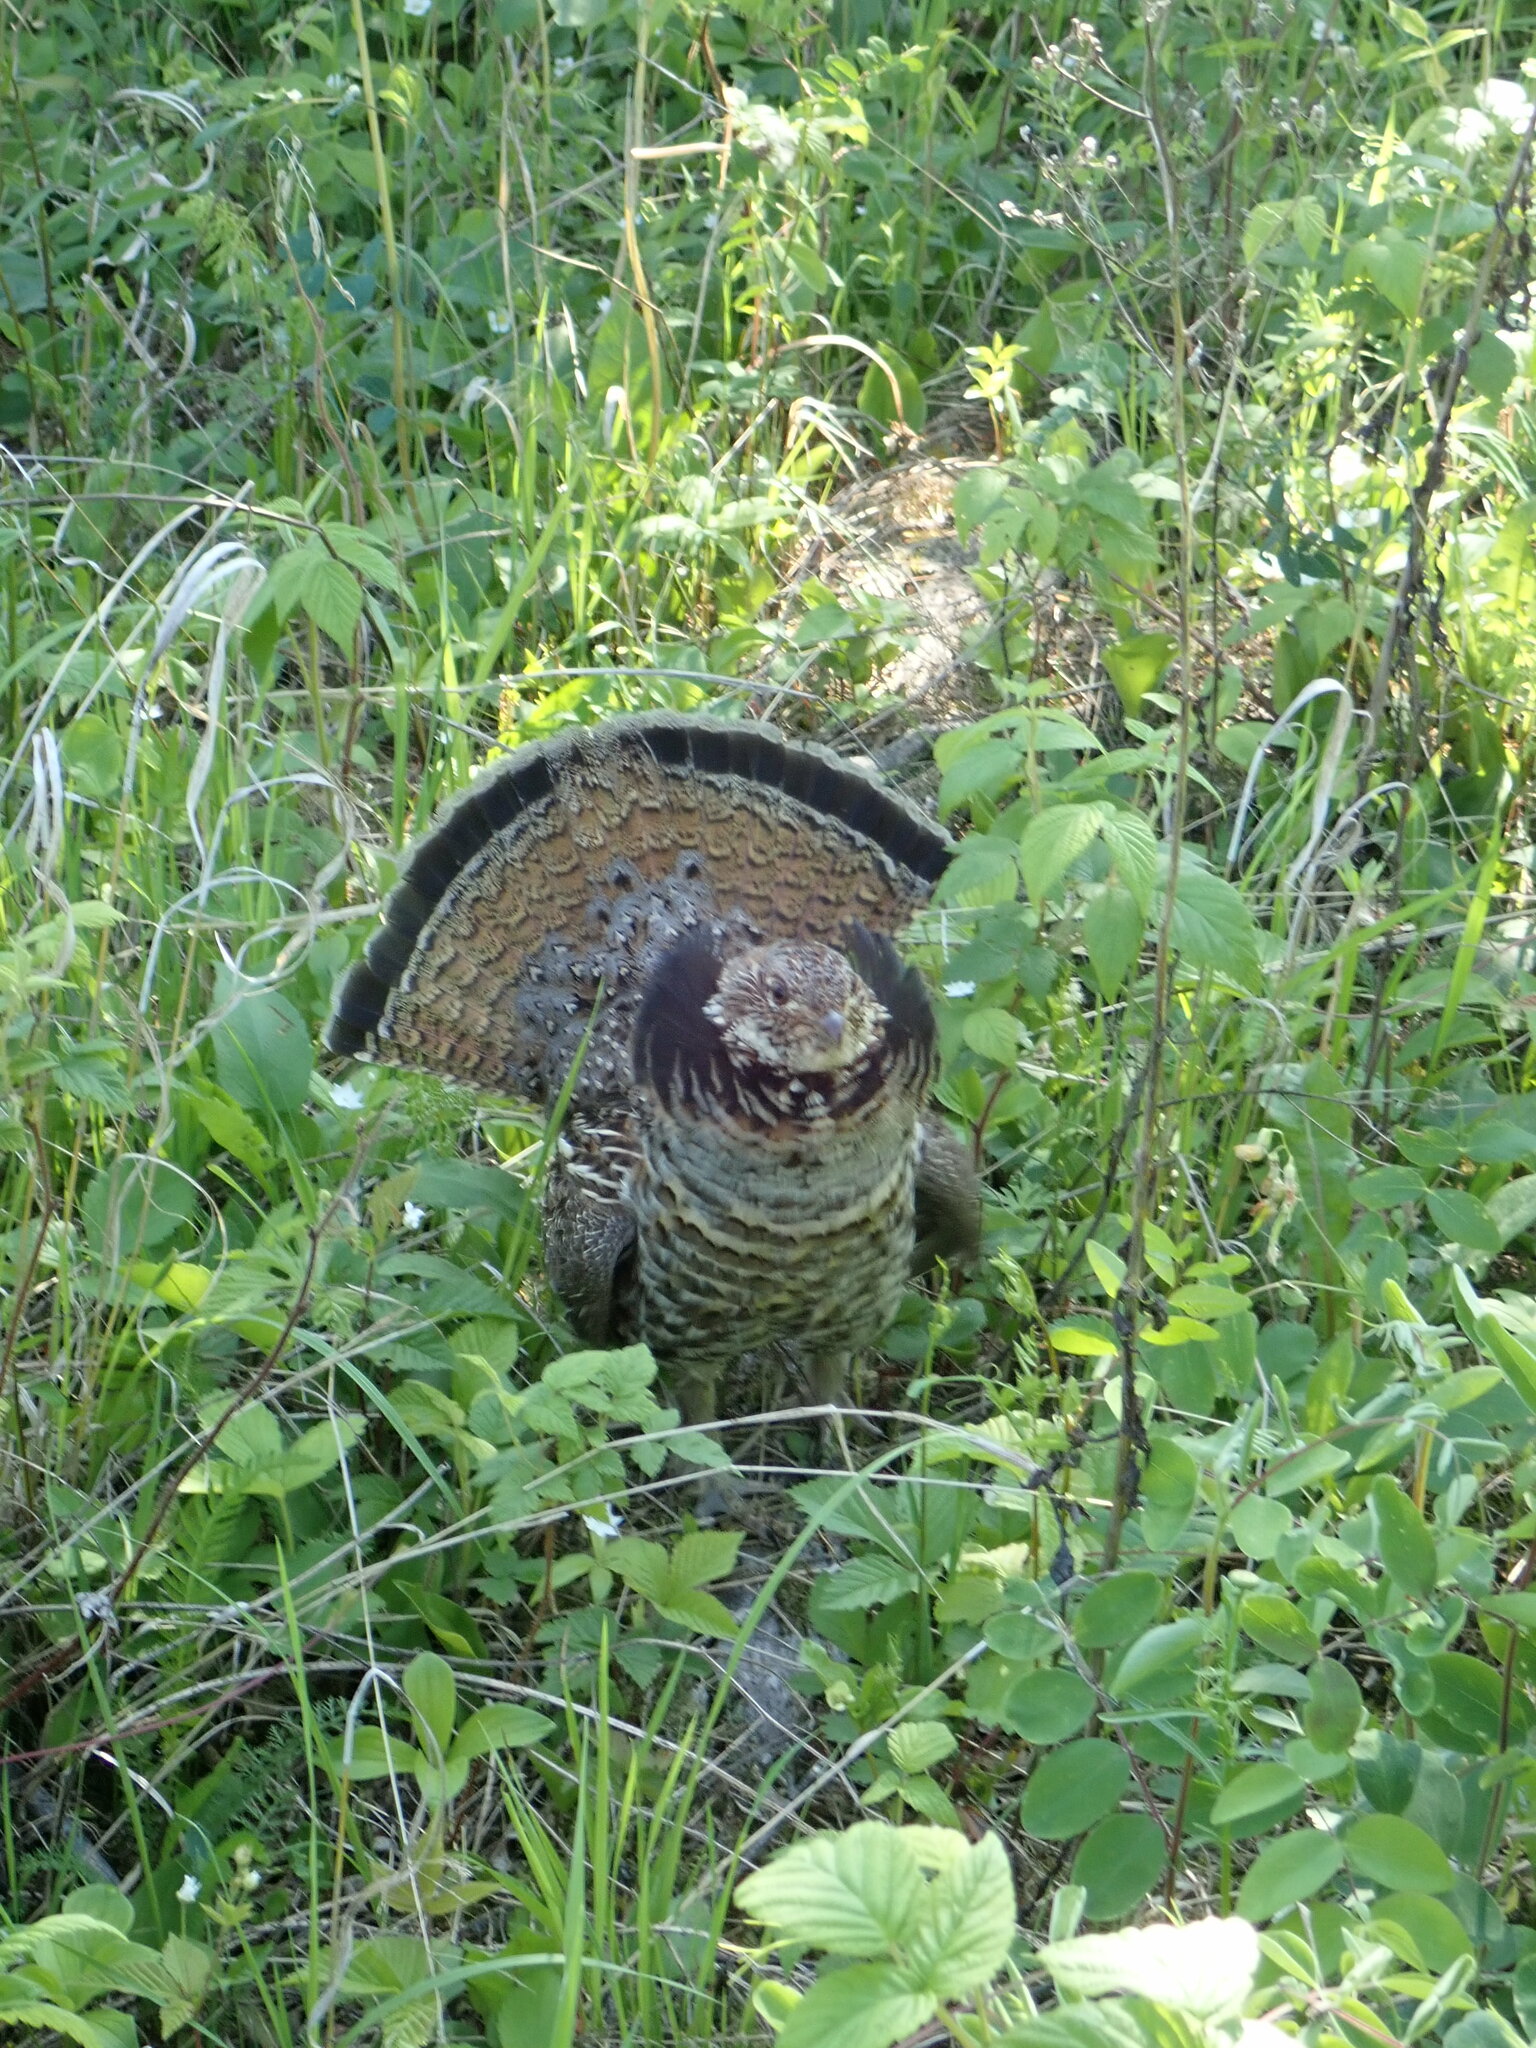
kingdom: Animalia
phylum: Chordata
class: Aves
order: Galliformes
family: Phasianidae
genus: Bonasa
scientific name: Bonasa umbellus
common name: Ruffed grouse
